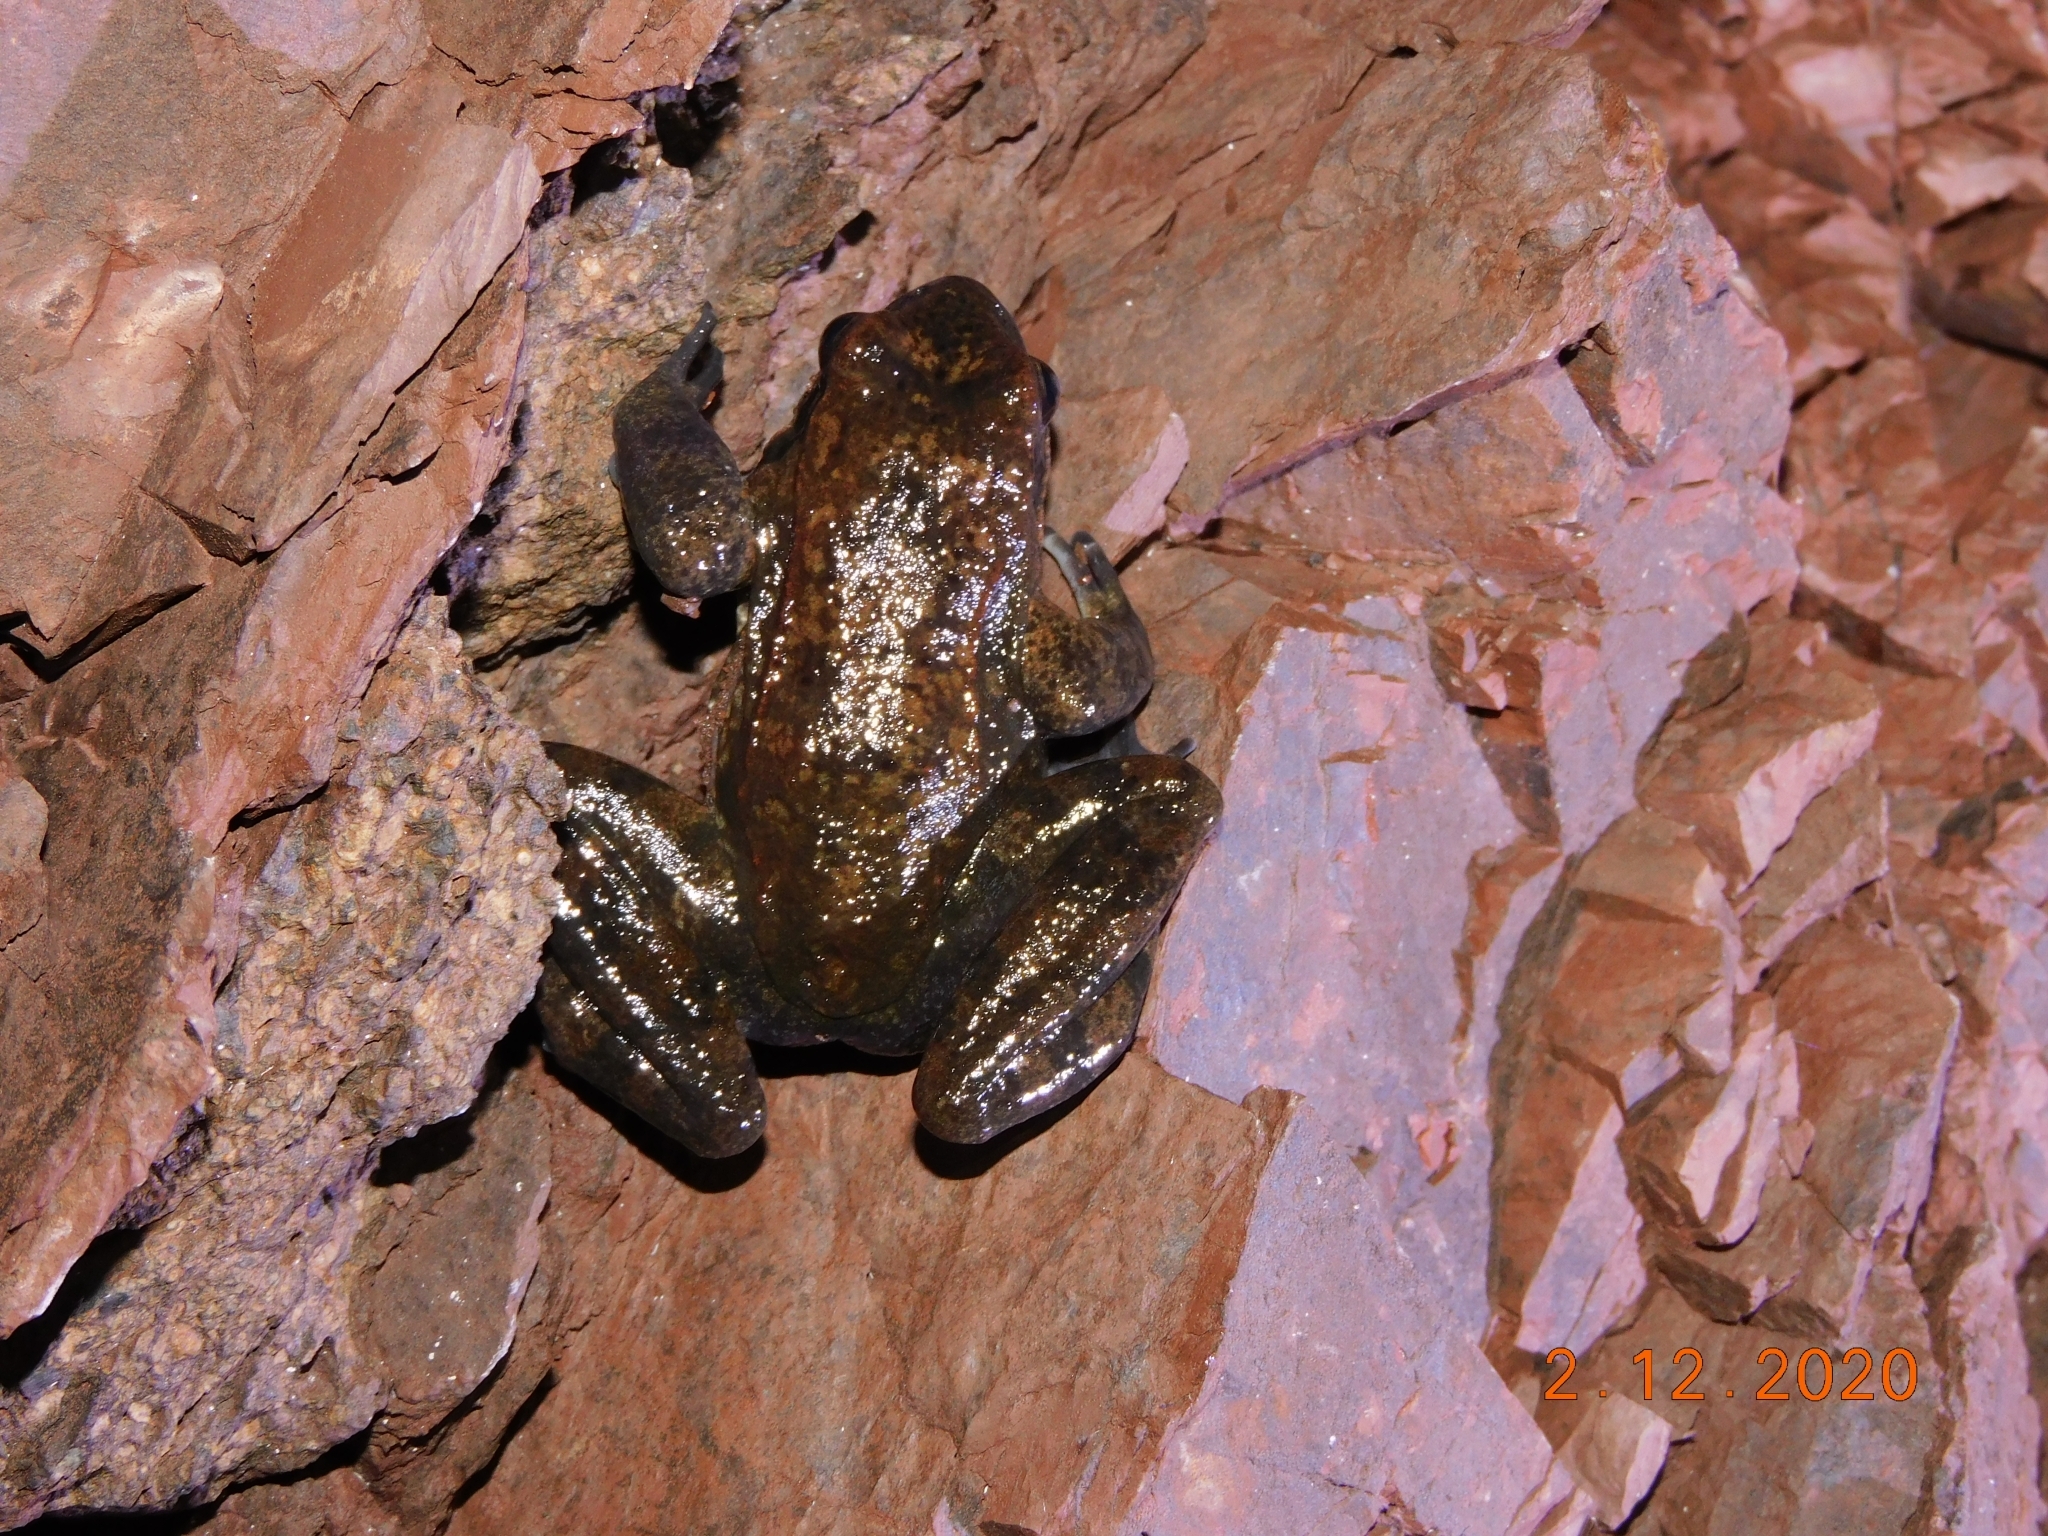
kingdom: Animalia
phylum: Chordata
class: Amphibia
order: Anura
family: Ranidae
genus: Rana
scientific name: Rana italica
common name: Italian stream frog
